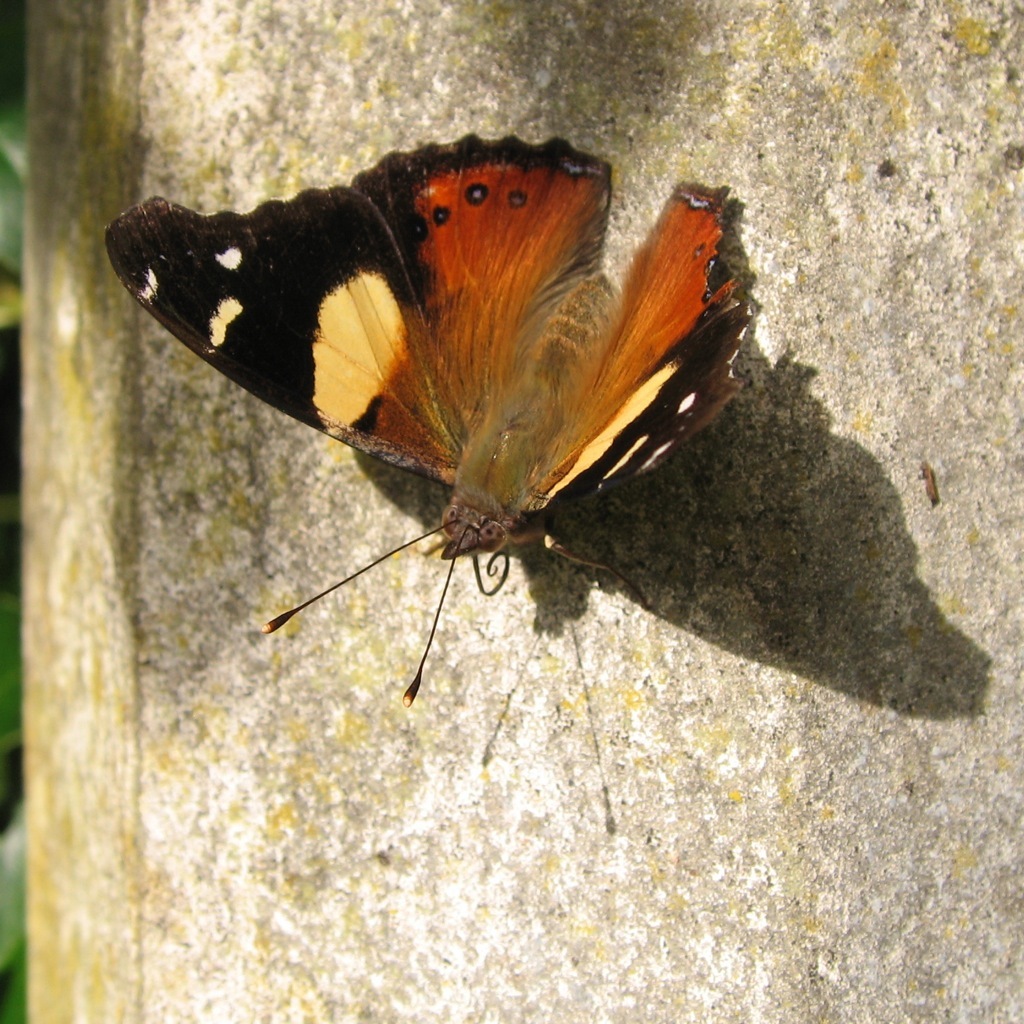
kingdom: Animalia
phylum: Arthropoda
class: Insecta
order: Lepidoptera
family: Nymphalidae
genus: Vanessa
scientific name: Vanessa itea
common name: Yellow admiral
